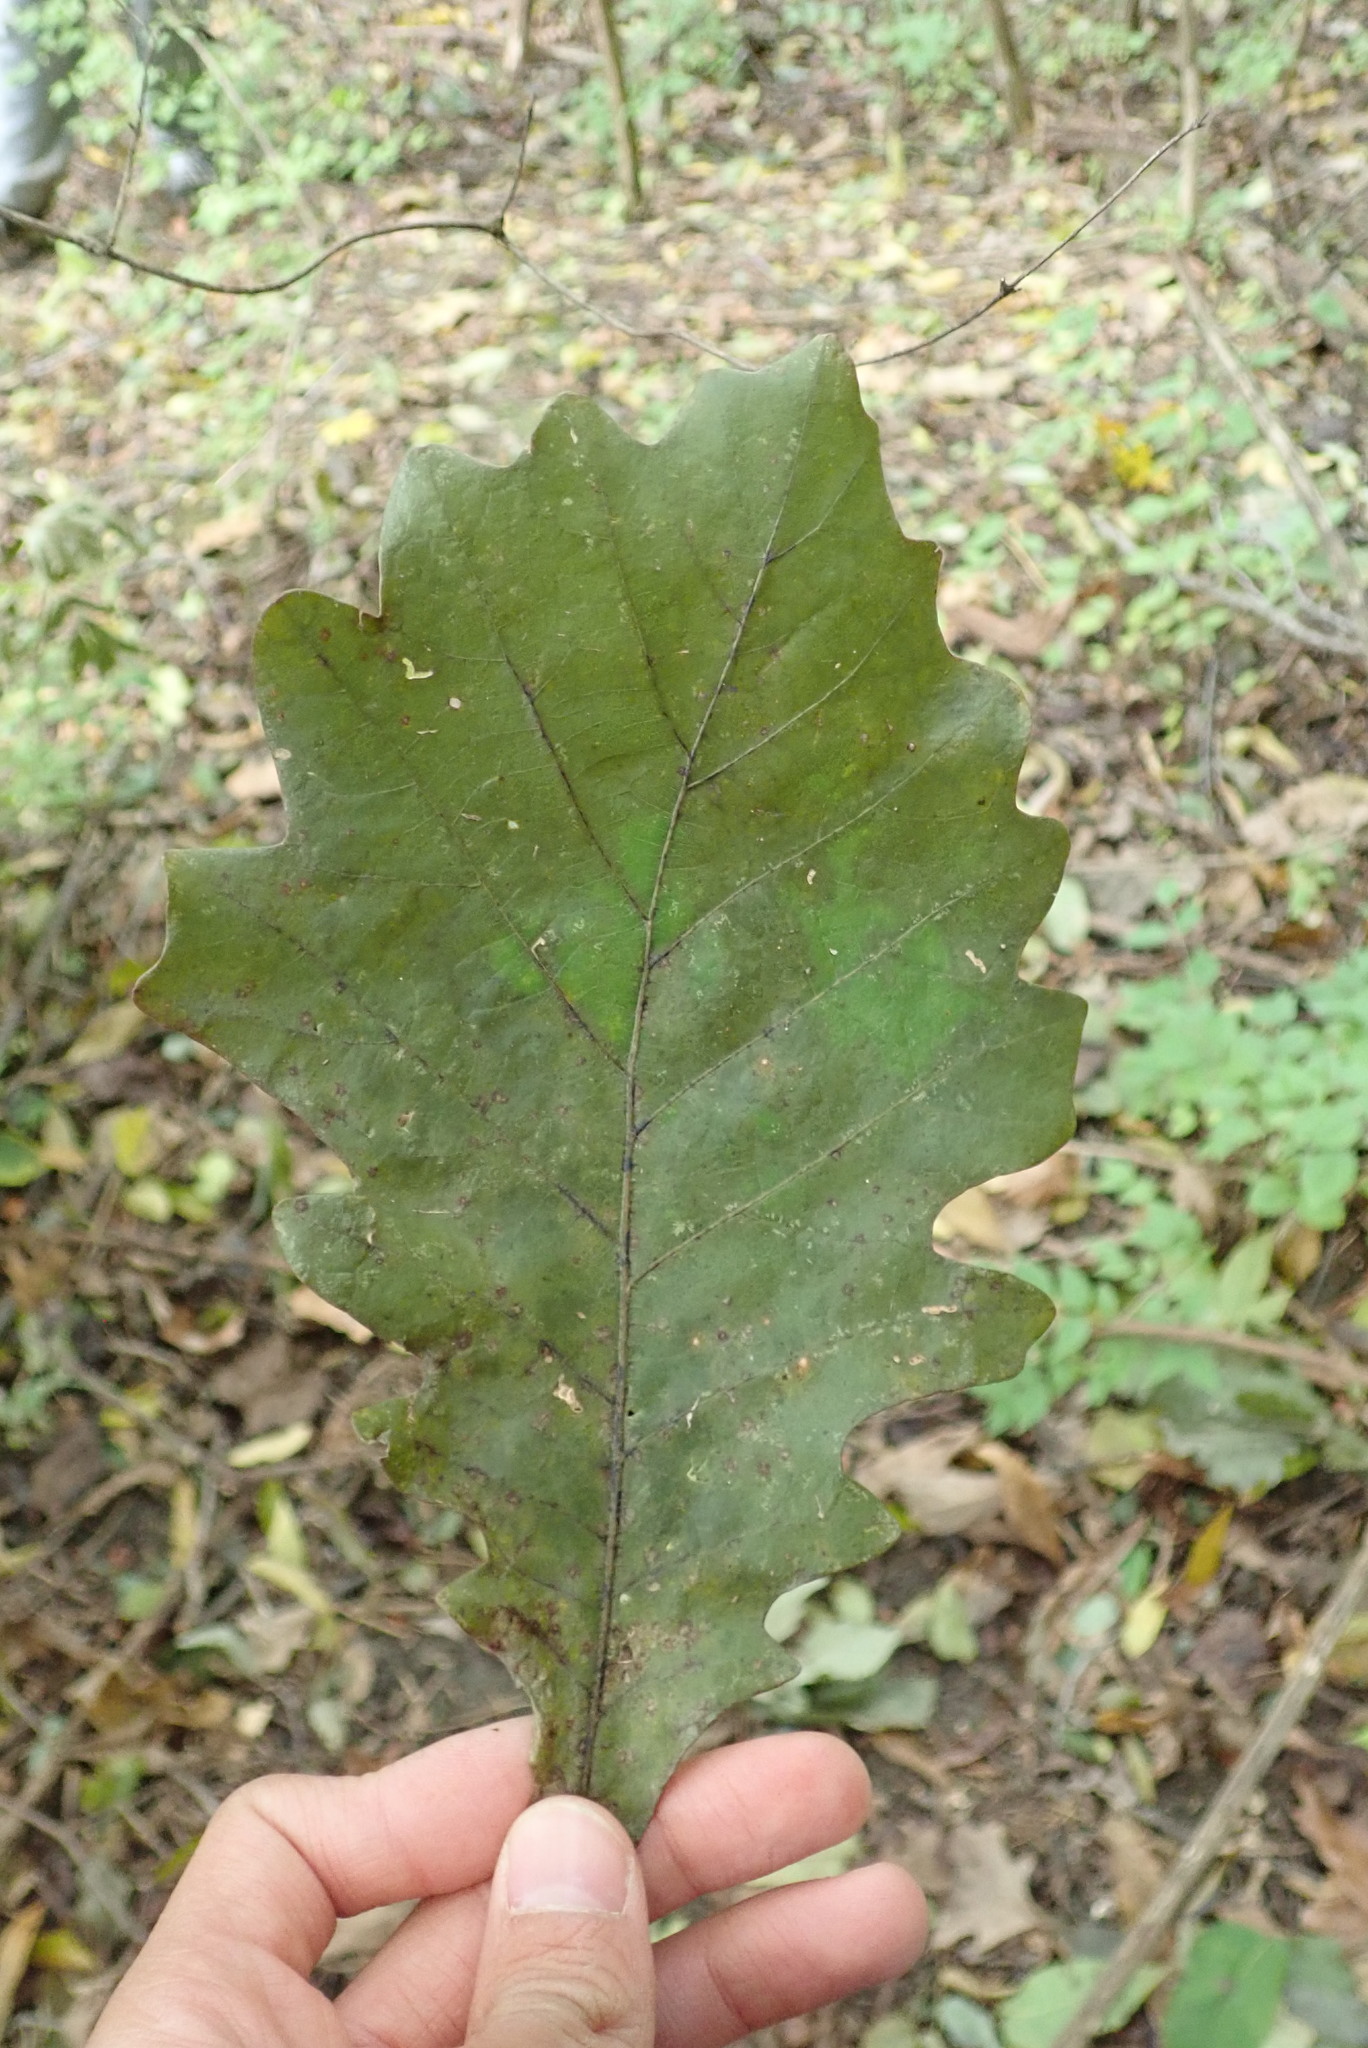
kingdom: Plantae
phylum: Tracheophyta
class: Magnoliopsida
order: Fagales
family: Fagaceae
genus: Quercus
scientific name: Quercus bicolor
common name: Swamp white oak
